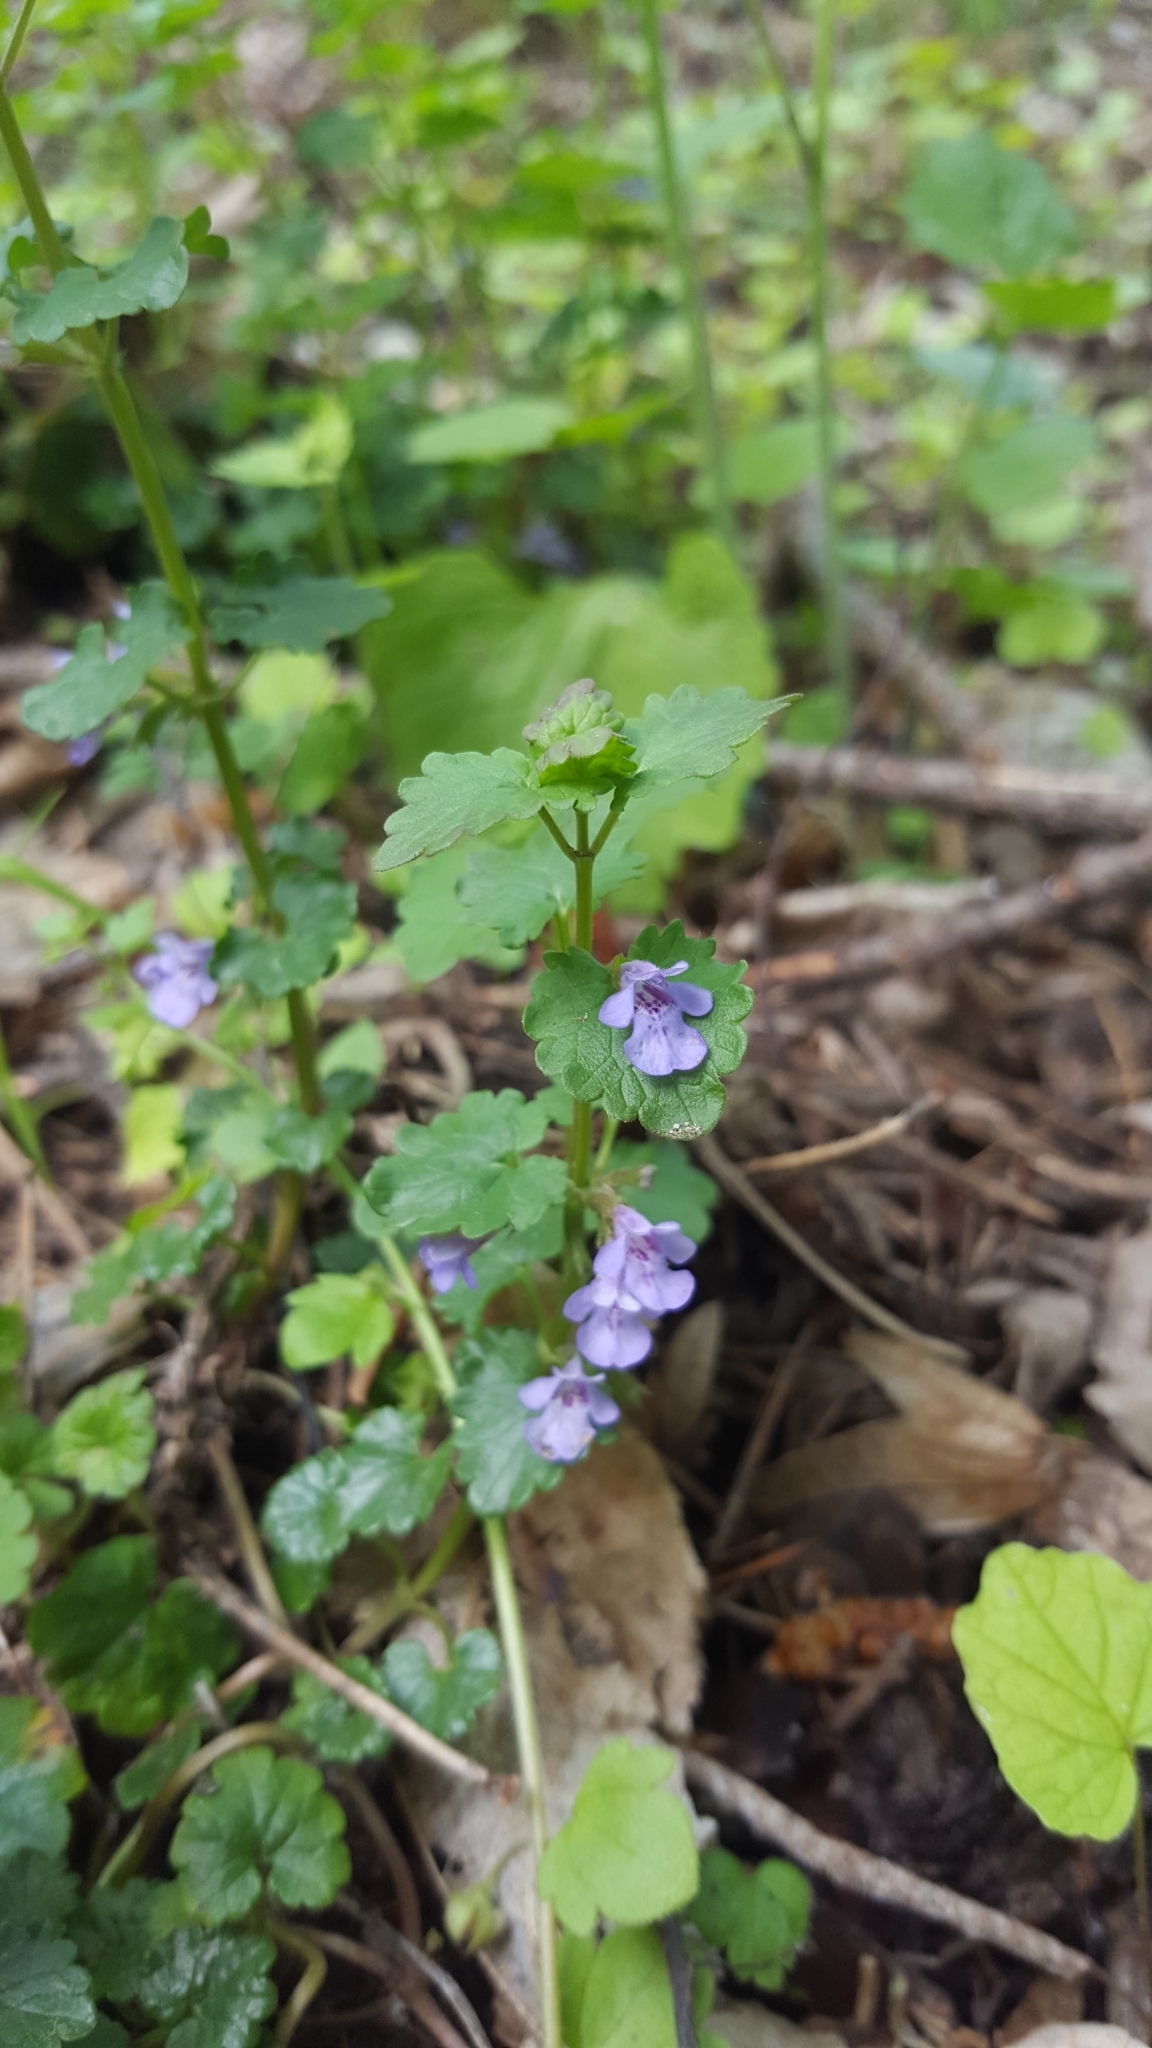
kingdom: Plantae
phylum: Tracheophyta
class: Magnoliopsida
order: Lamiales
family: Lamiaceae
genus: Glechoma
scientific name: Glechoma hederacea
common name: Ground ivy
